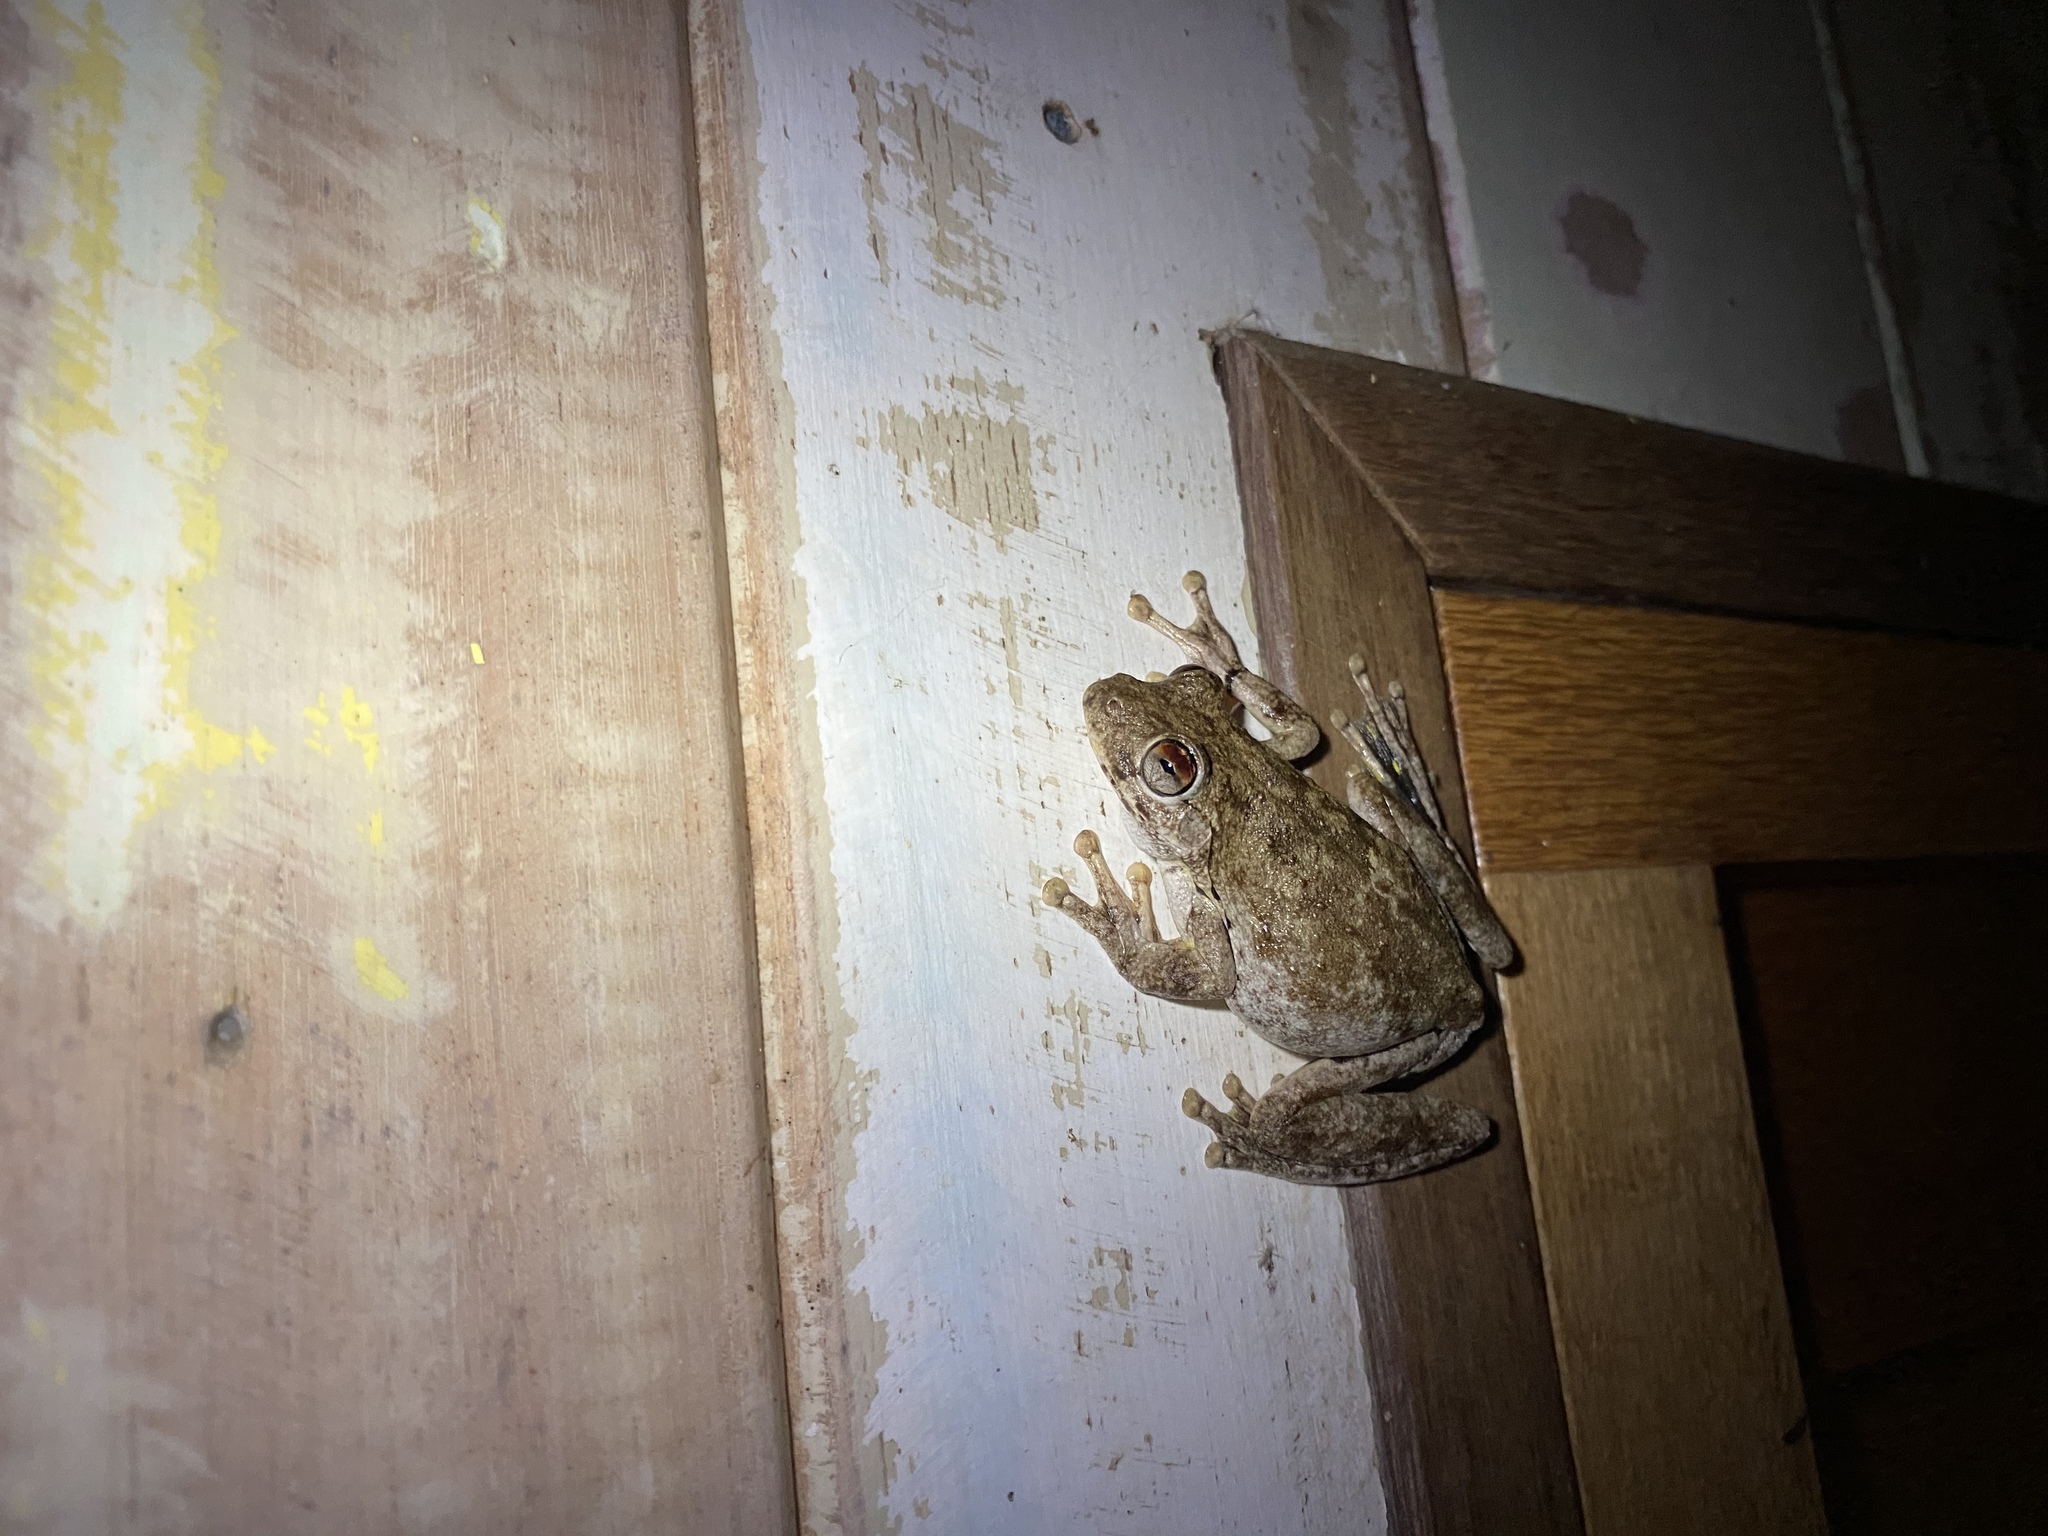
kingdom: Animalia
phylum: Chordata
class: Amphibia
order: Anura
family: Pelodryadidae
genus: Litoria
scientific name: Litoria rothii
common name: Roth’s tree frog
